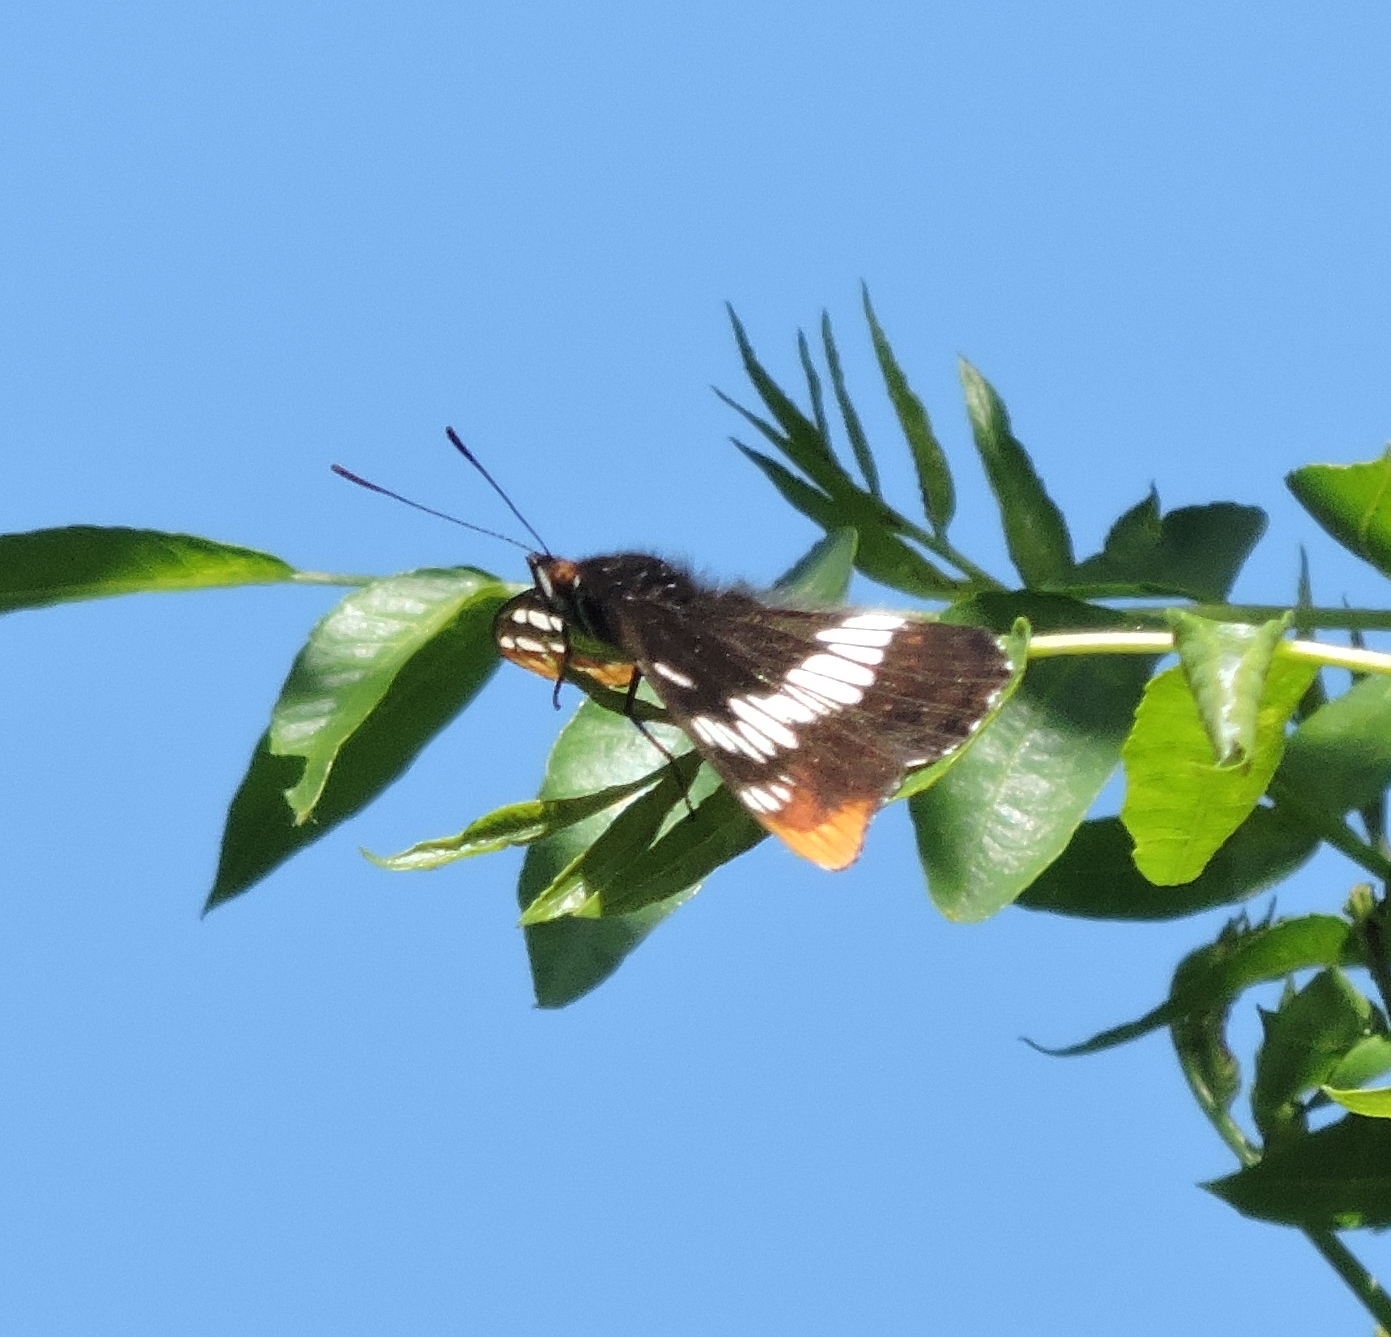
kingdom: Animalia
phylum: Arthropoda
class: Insecta
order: Lepidoptera
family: Nymphalidae
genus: Limenitis
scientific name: Limenitis lorquini
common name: Lorquin's admiral
